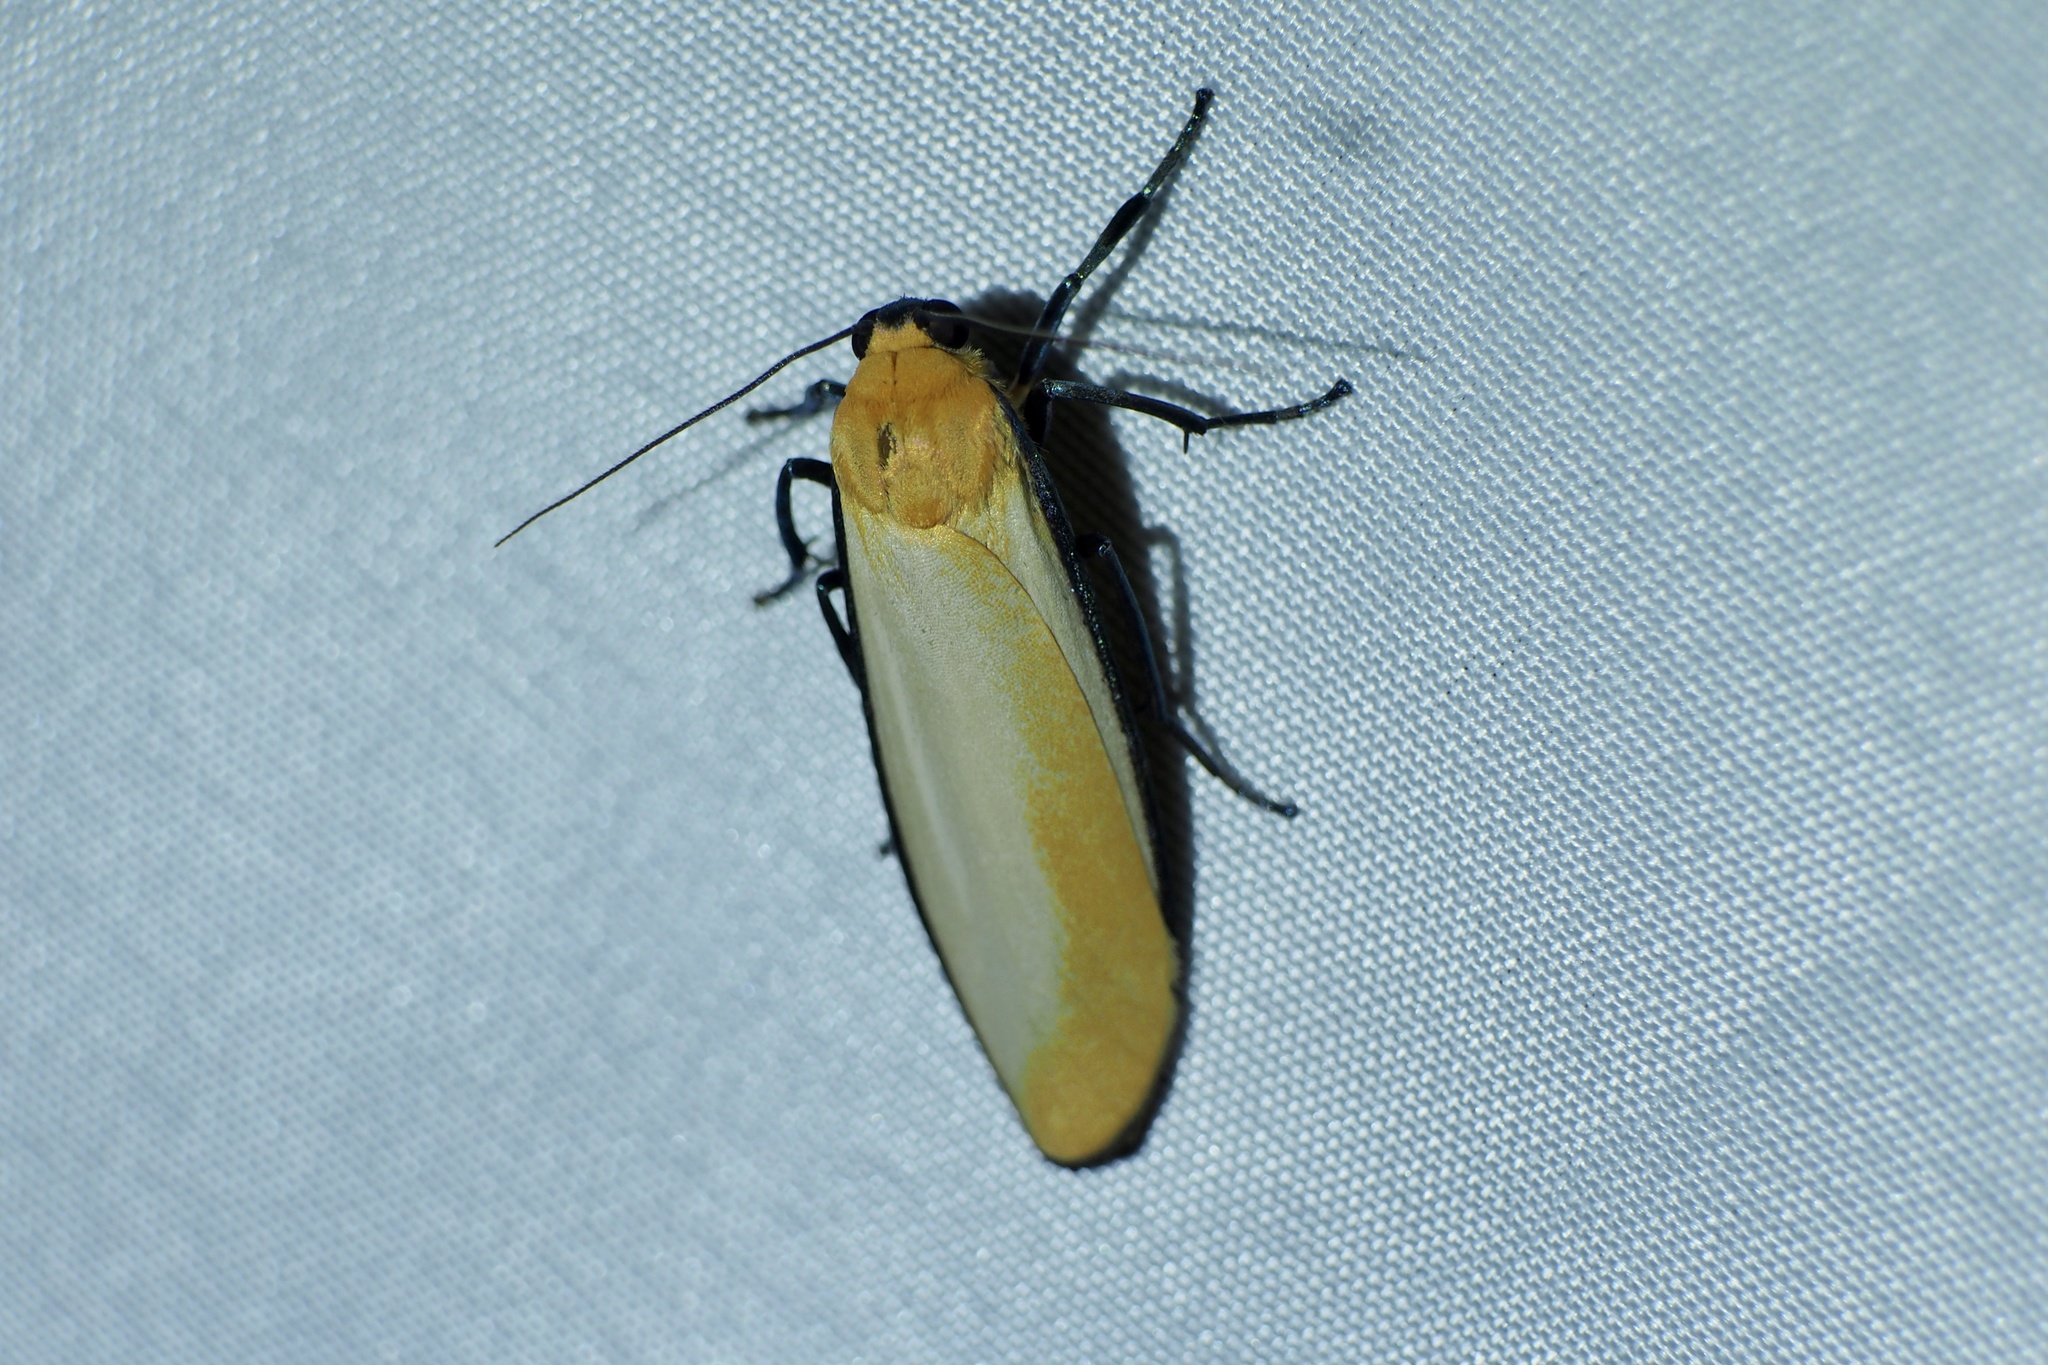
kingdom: Animalia
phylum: Arthropoda
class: Insecta
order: Lepidoptera
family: Erebidae
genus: Conilepia
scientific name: Conilepia nigricosta
